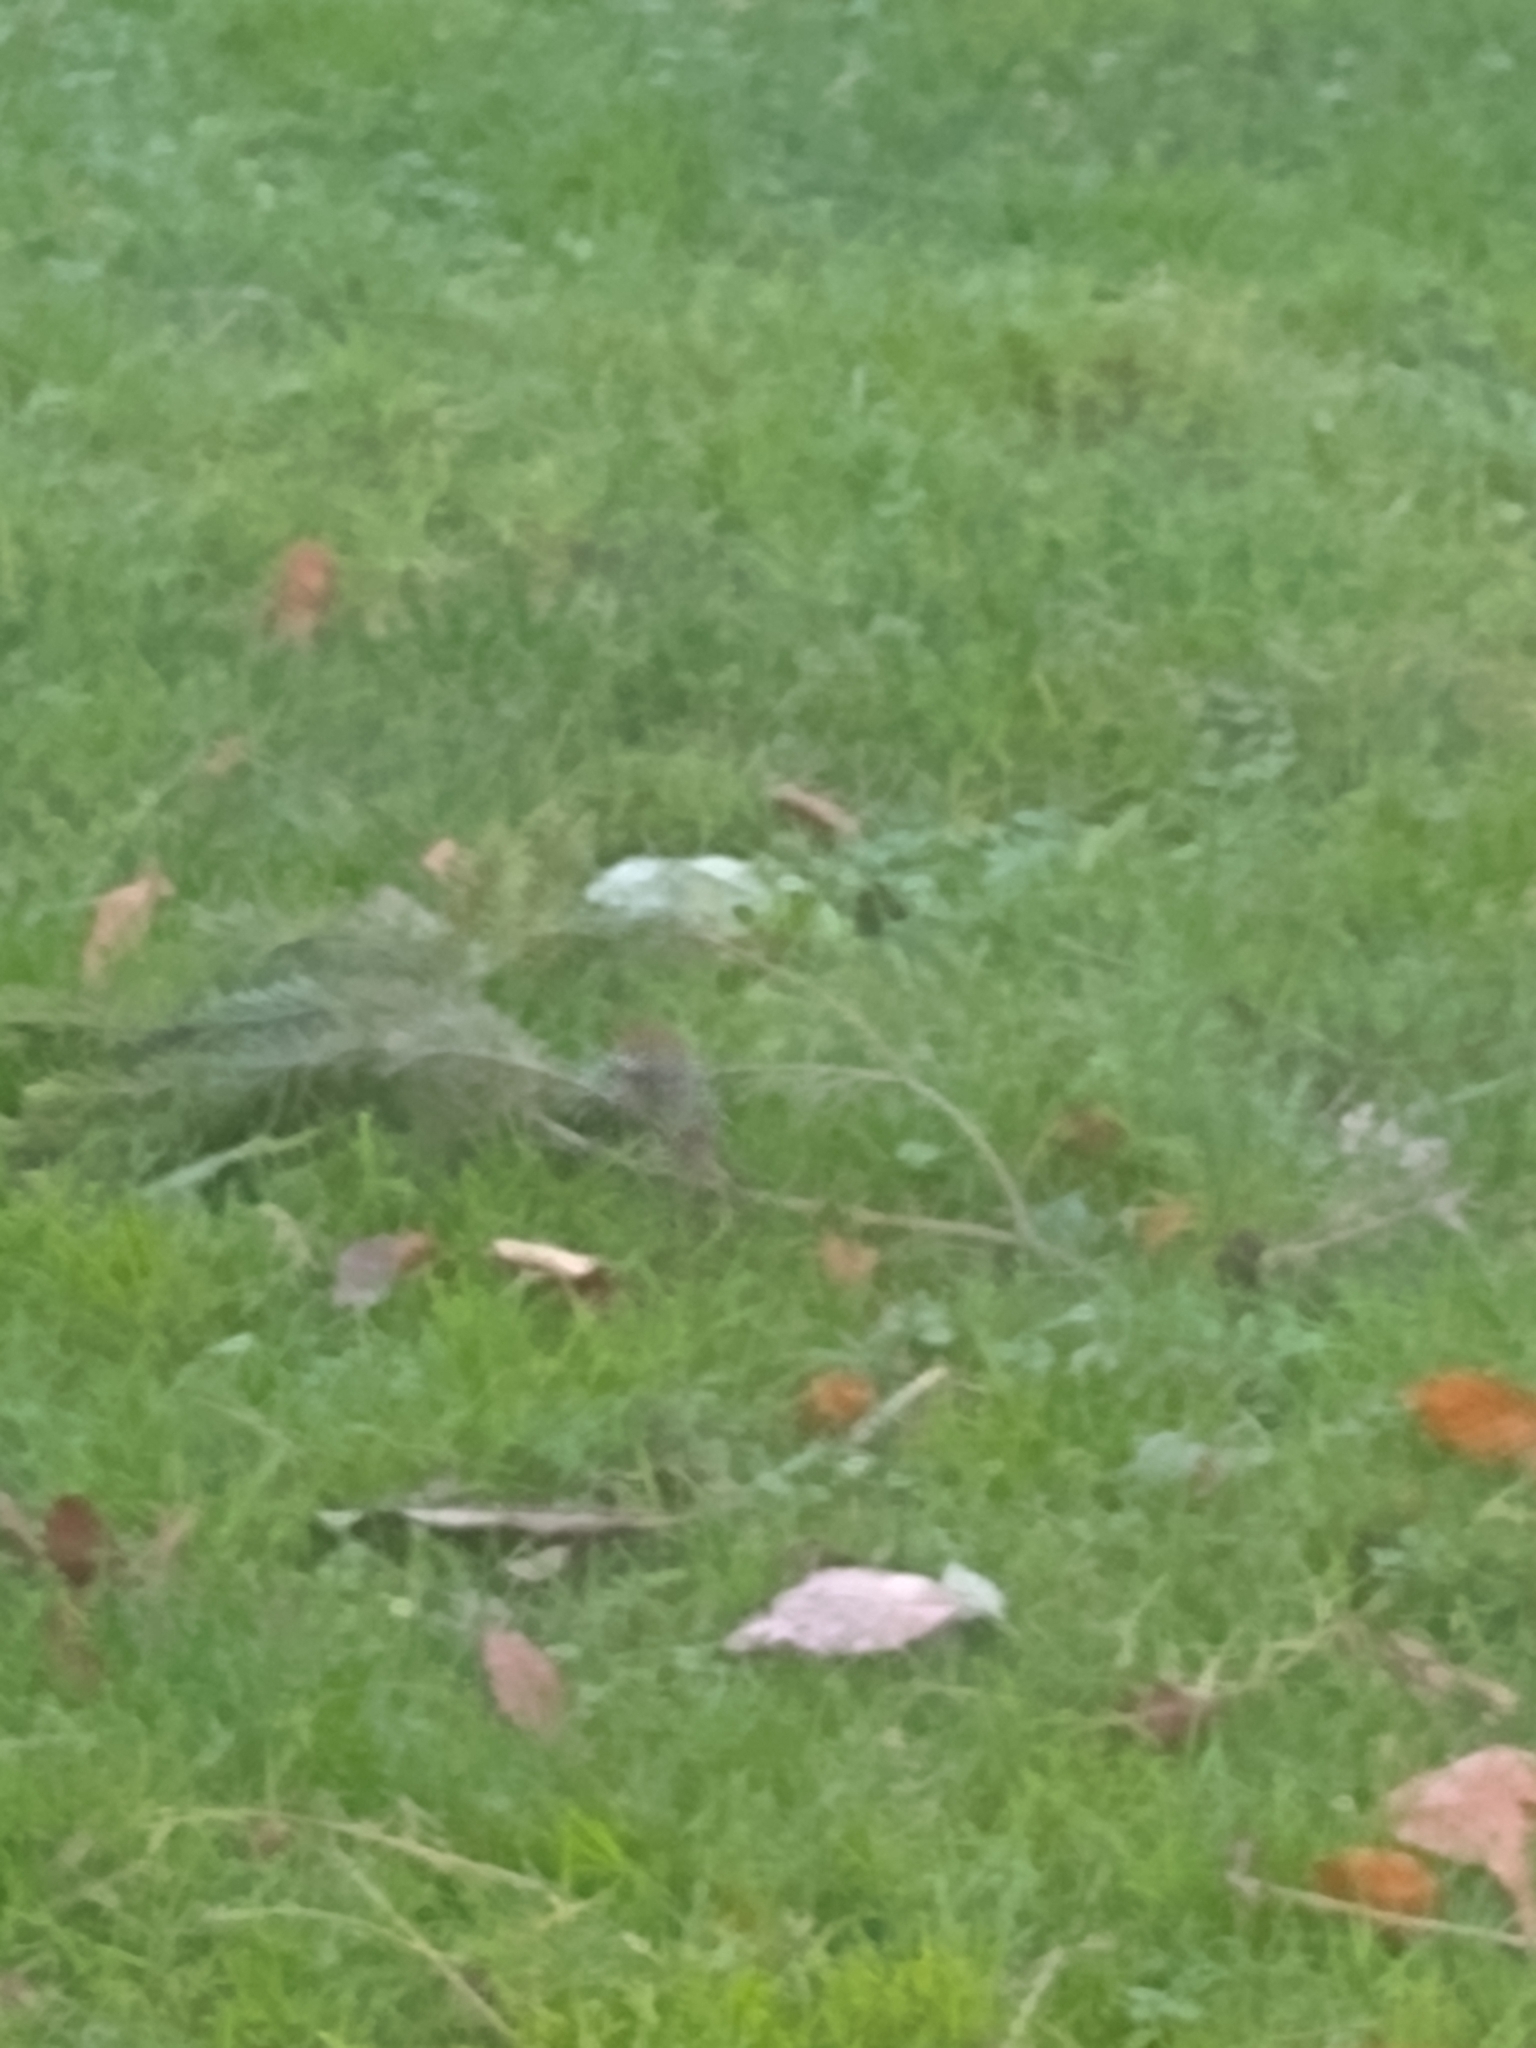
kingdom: Animalia
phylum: Chordata
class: Aves
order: Passeriformes
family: Parulidae
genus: Setophaga
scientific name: Setophaga townsendi
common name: Townsend's warbler
